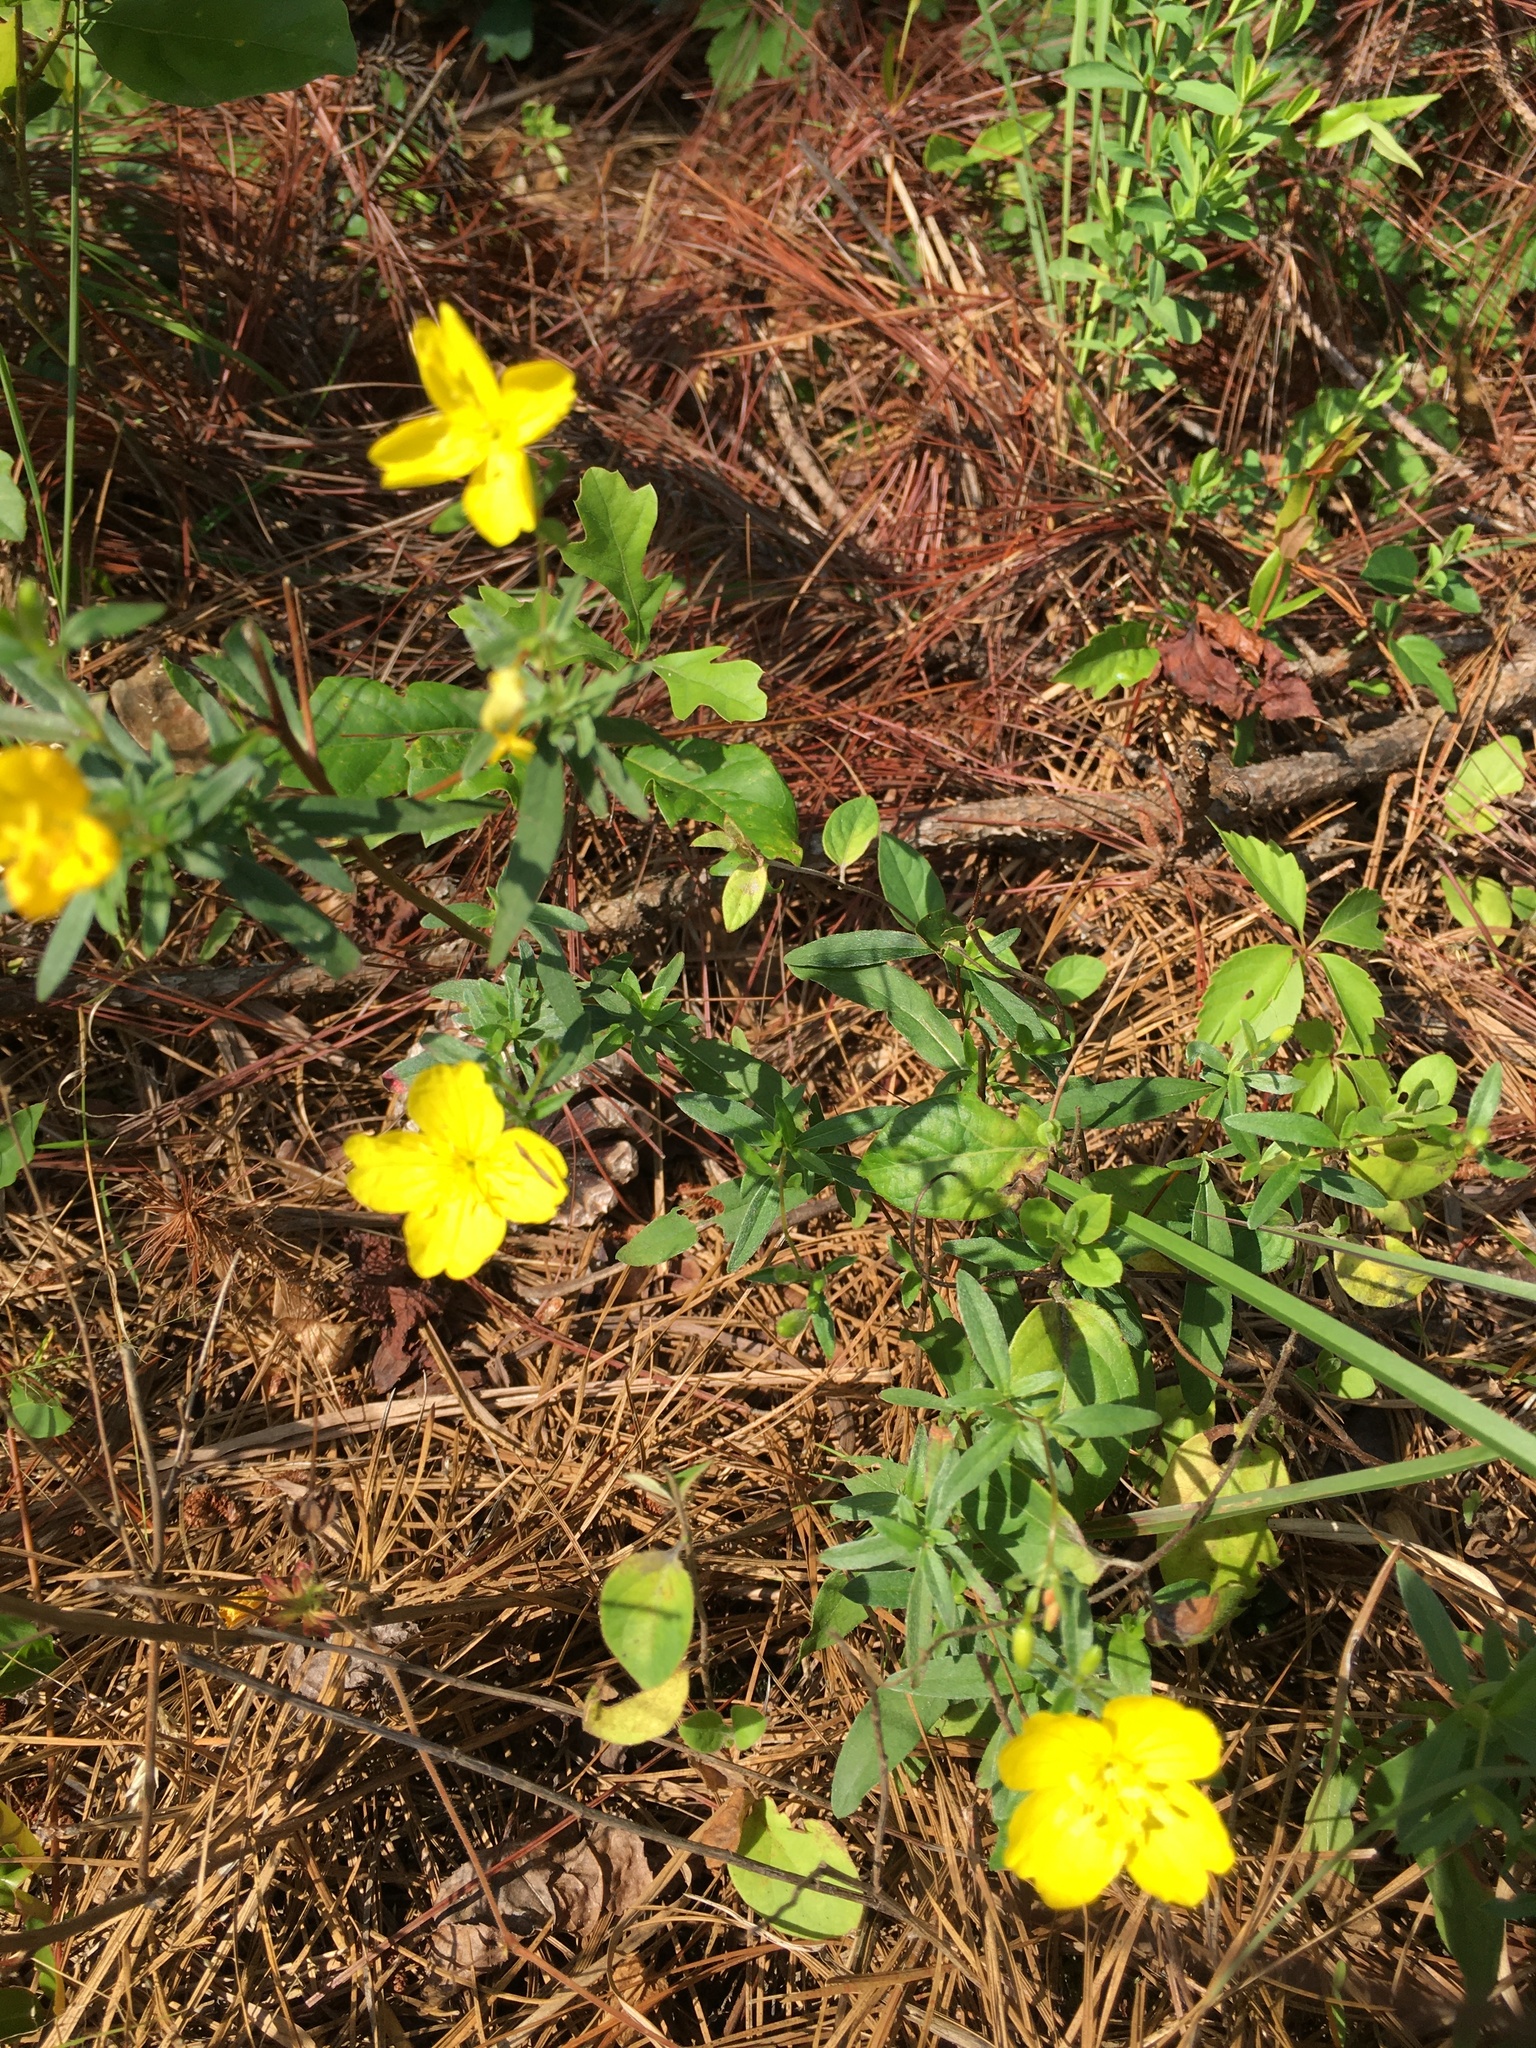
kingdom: Plantae
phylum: Tracheophyta
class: Magnoliopsida
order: Myrtales
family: Onagraceae
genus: Oenothera
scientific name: Oenothera fruticosa
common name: Southern sundrops
